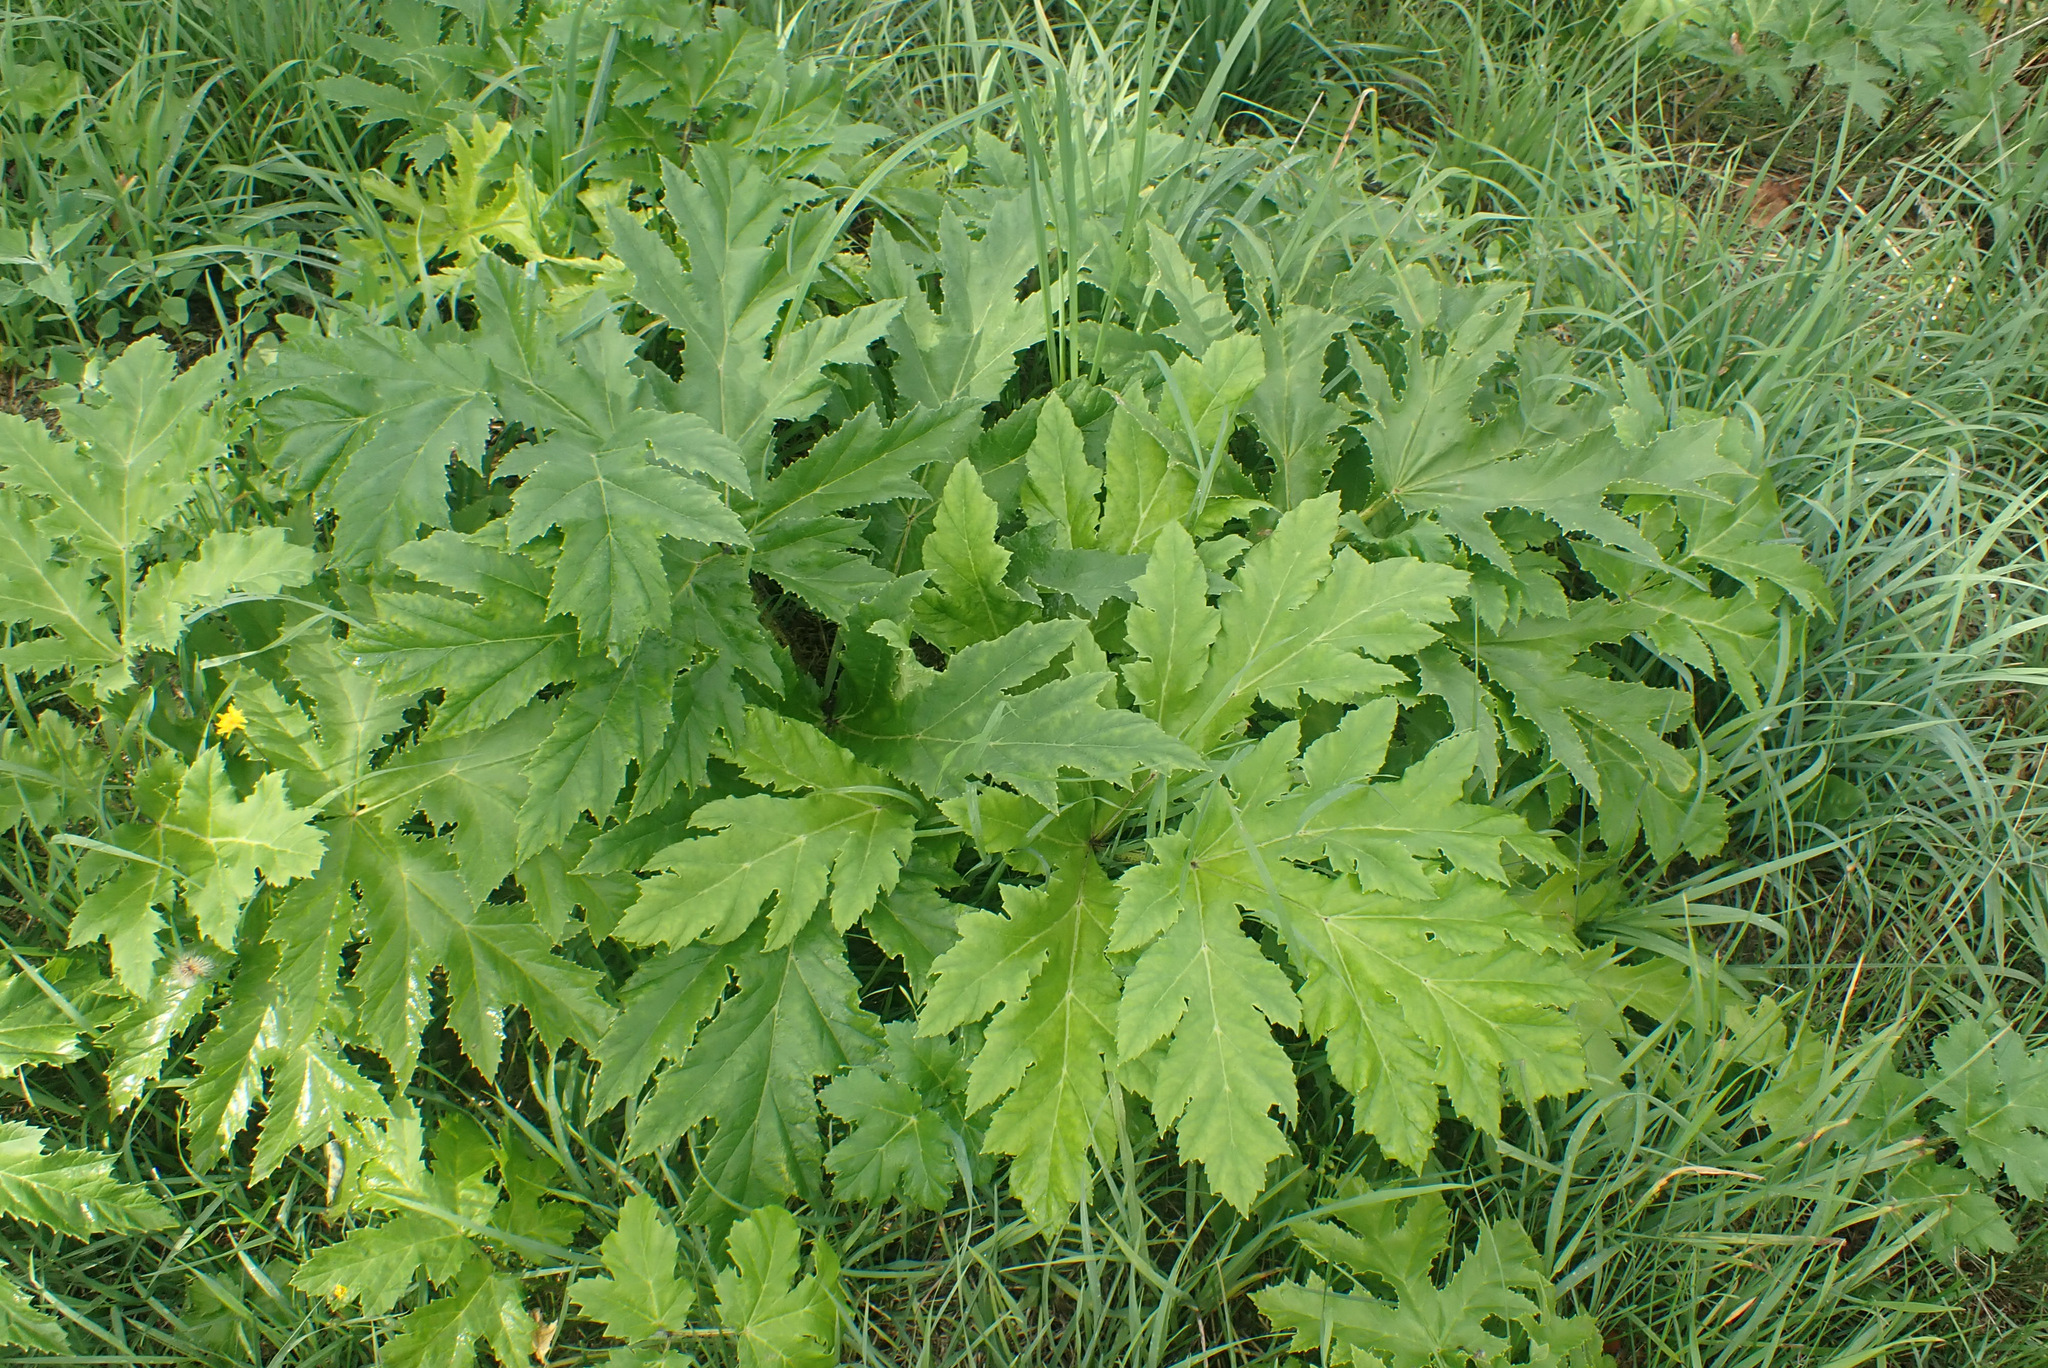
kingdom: Plantae
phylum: Tracheophyta
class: Magnoliopsida
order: Apiales
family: Apiaceae
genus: Heracleum
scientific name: Heracleum mantegazzianum
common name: Giant hogweed
